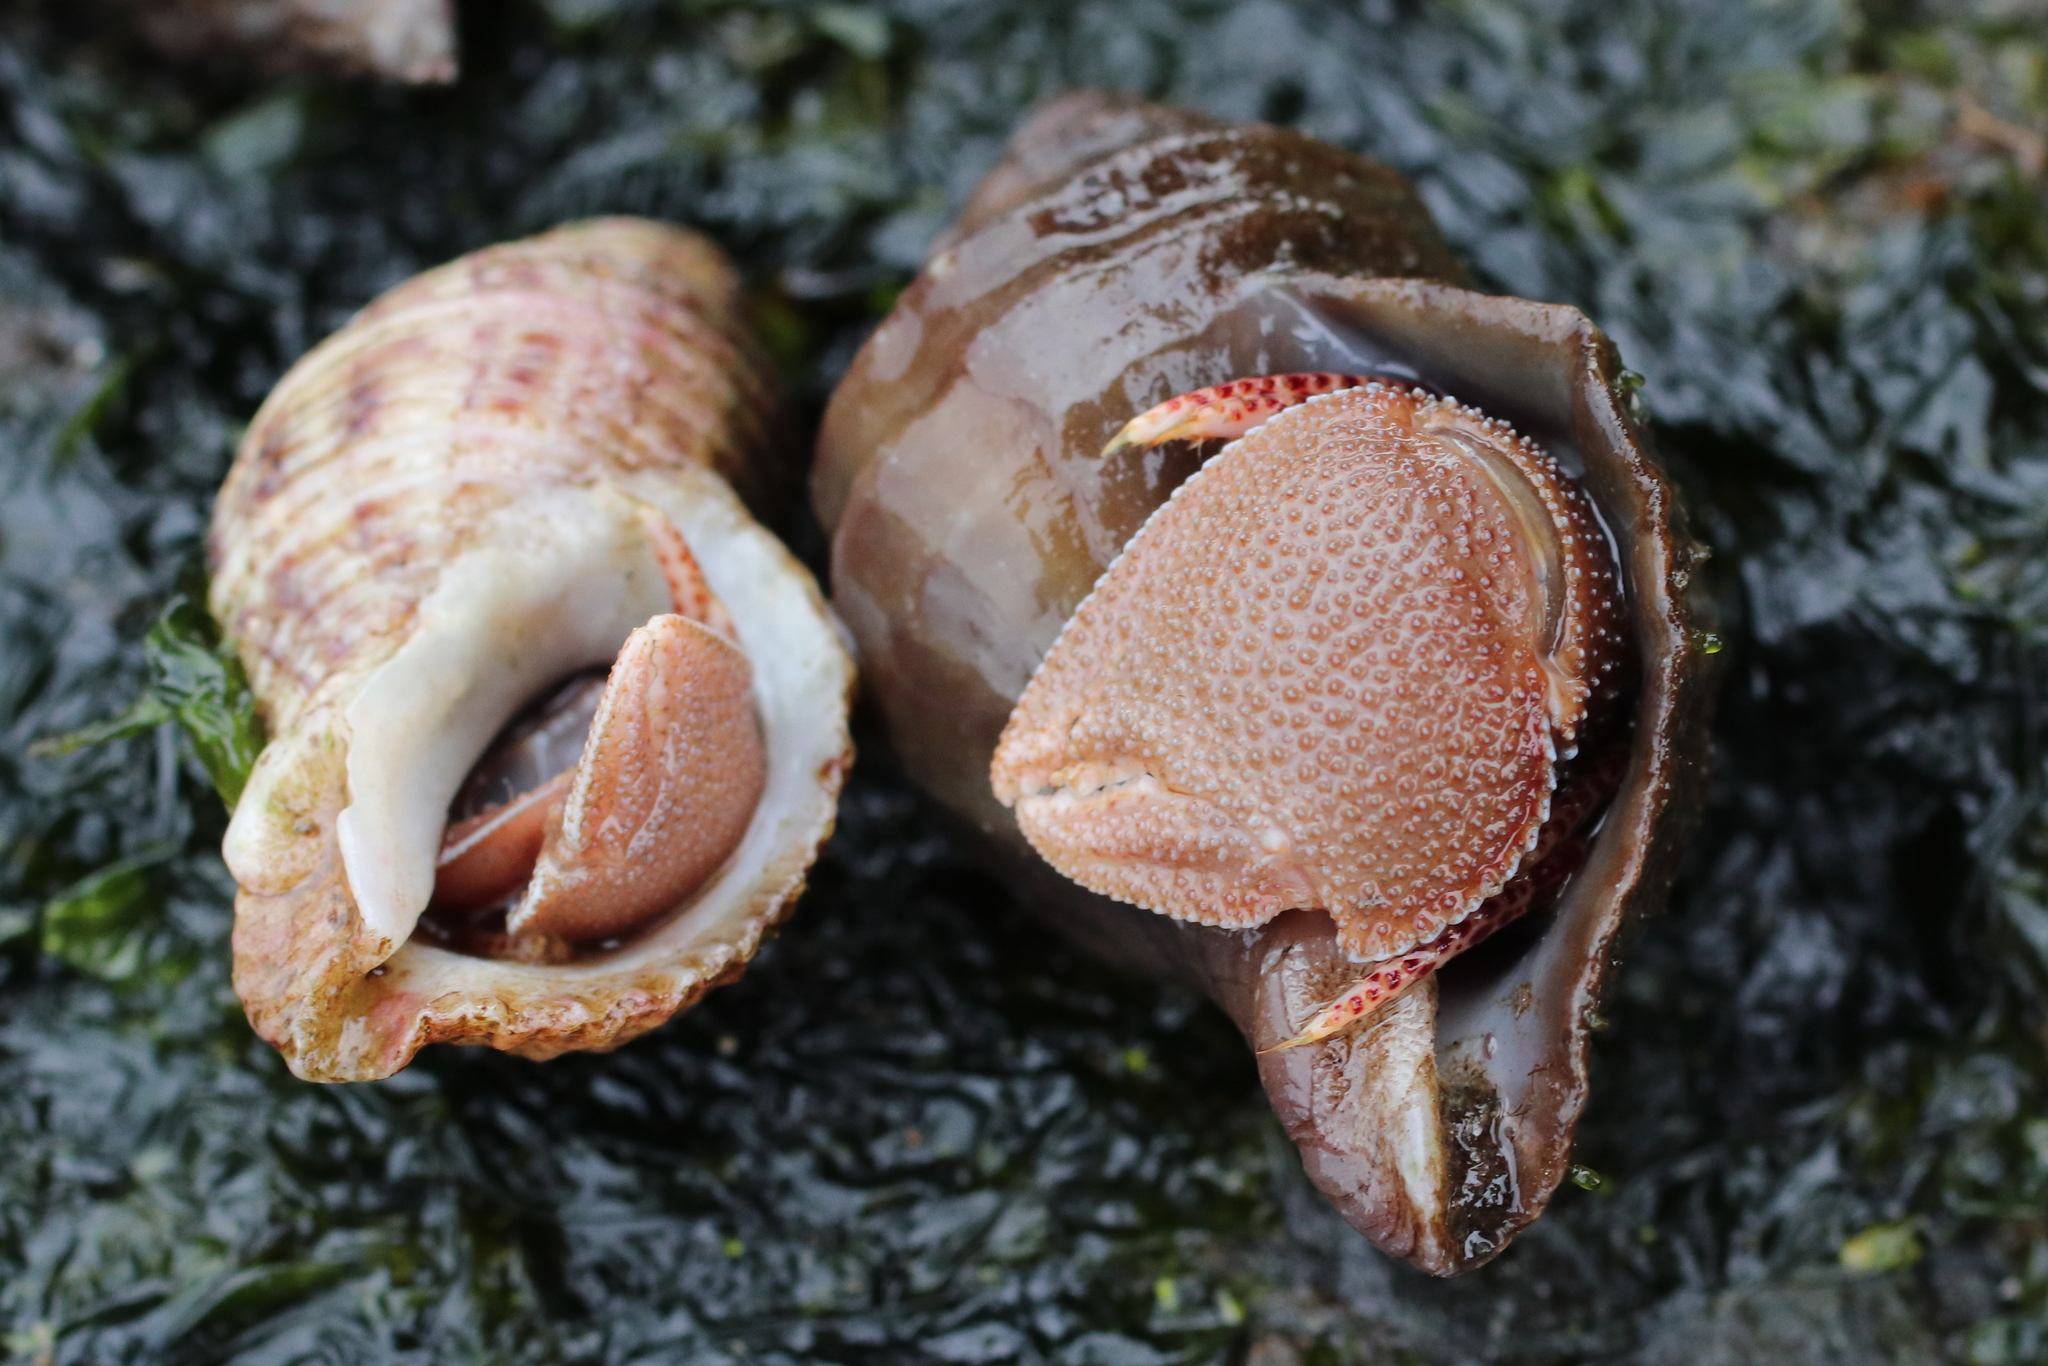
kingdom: Animalia
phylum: Arthropoda
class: Malacostraca
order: Decapoda
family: Paguridae
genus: Elassochirus
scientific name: Elassochirus tenuimanus
